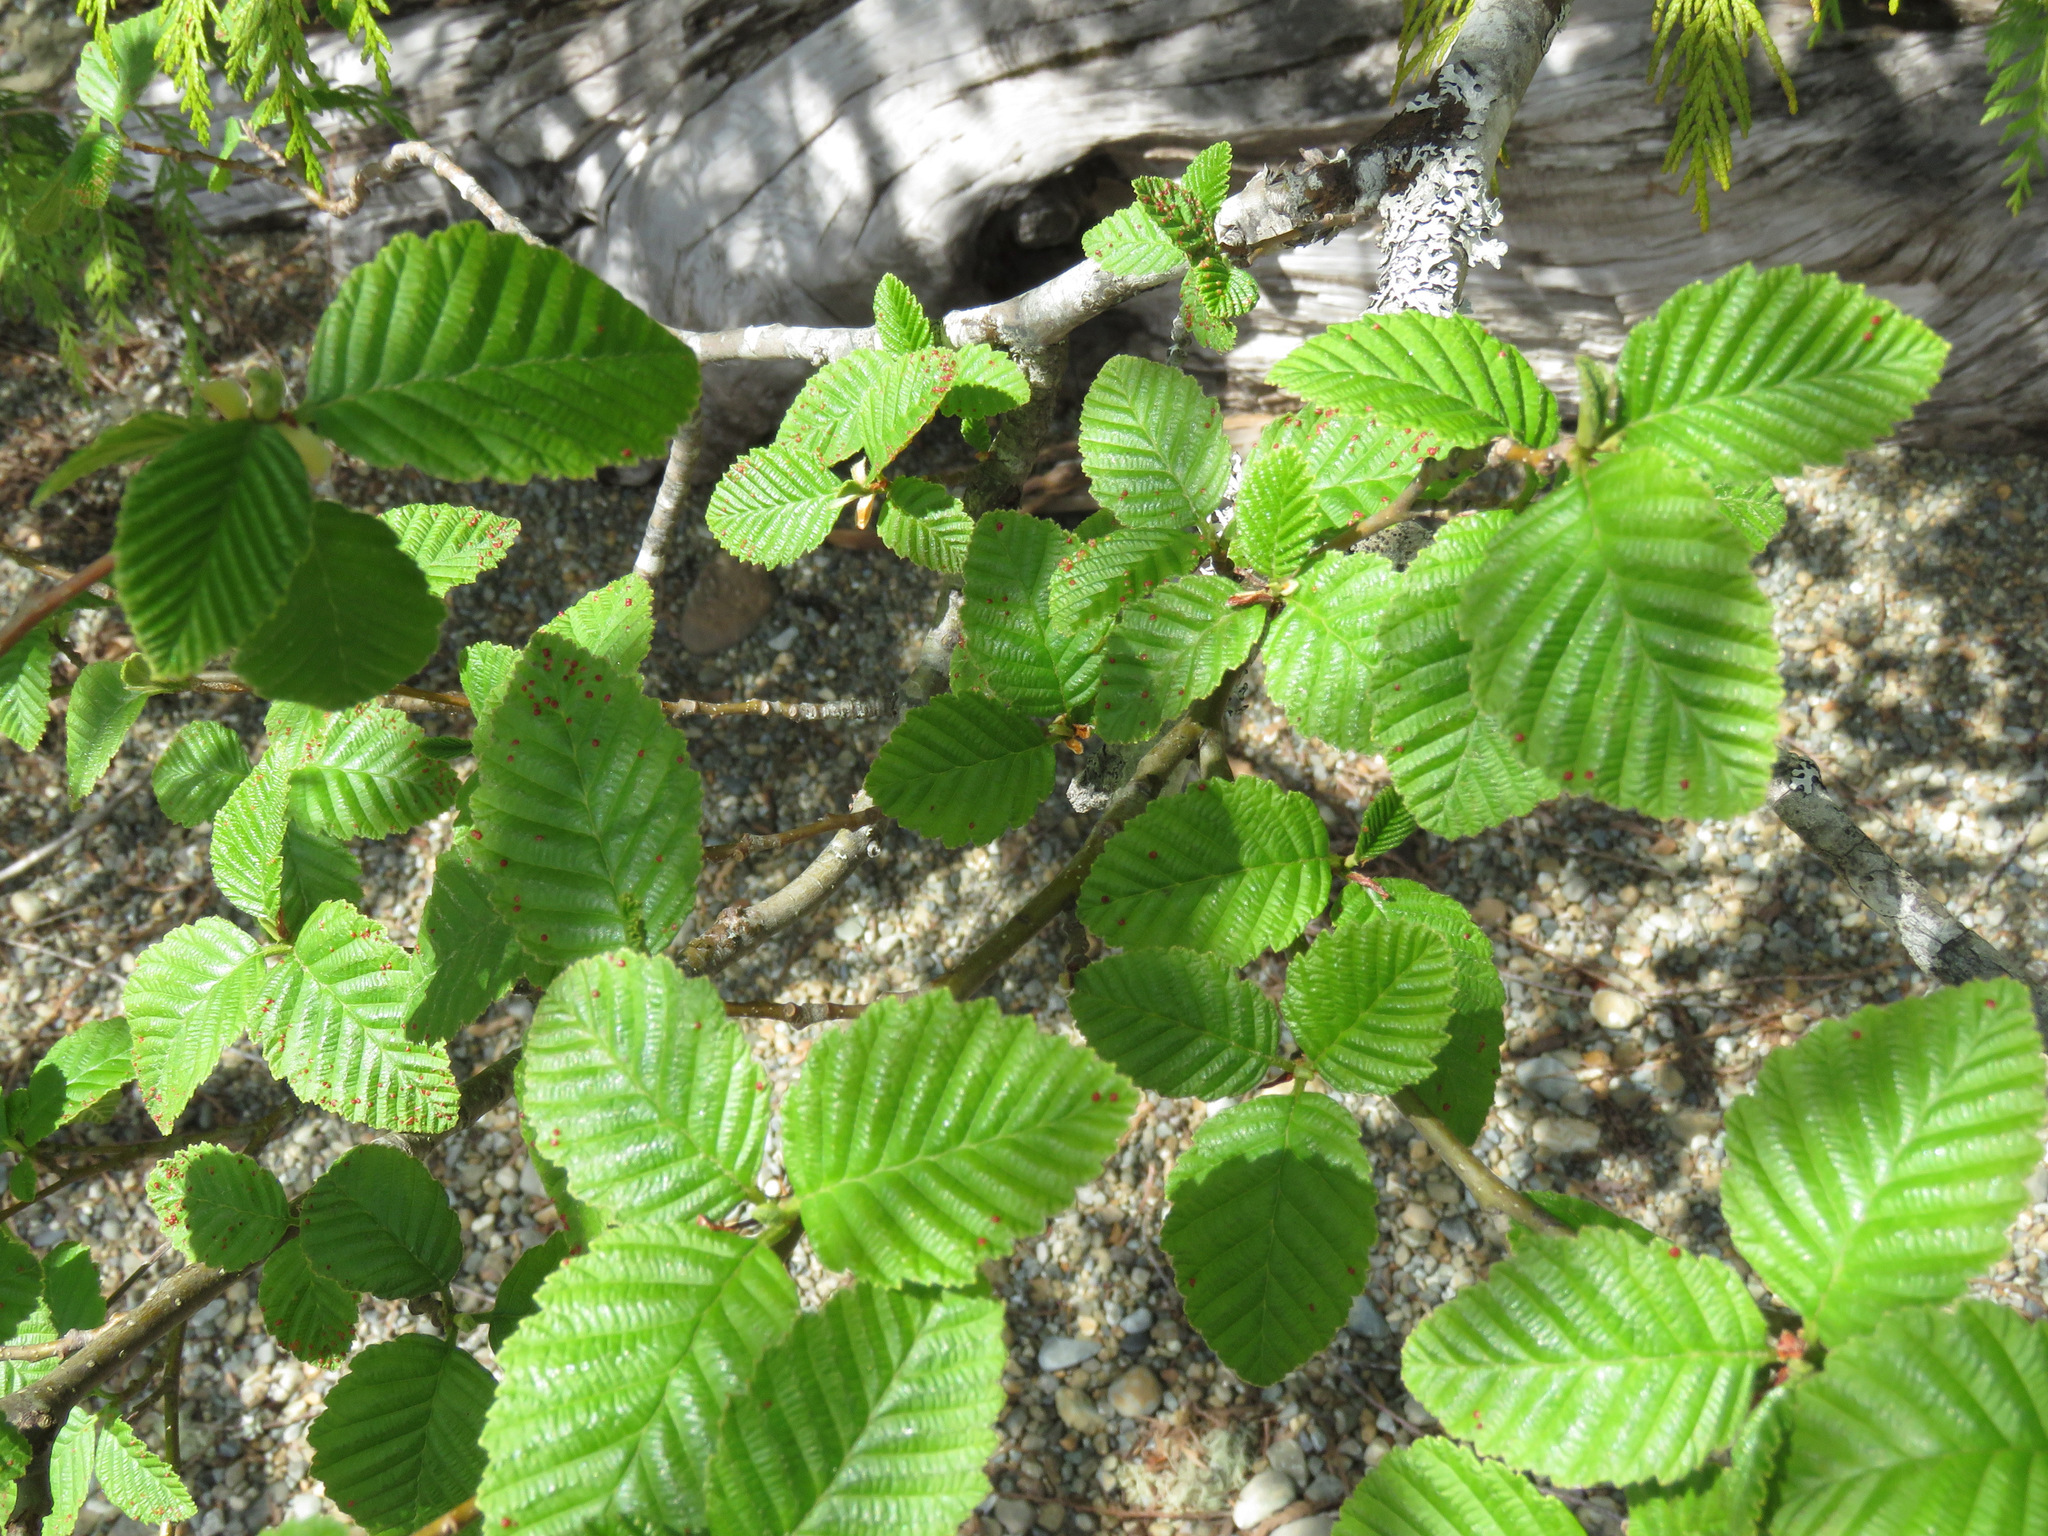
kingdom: Plantae
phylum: Tracheophyta
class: Magnoliopsida
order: Fagales
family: Betulaceae
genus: Alnus
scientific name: Alnus rubra
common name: Red alder
